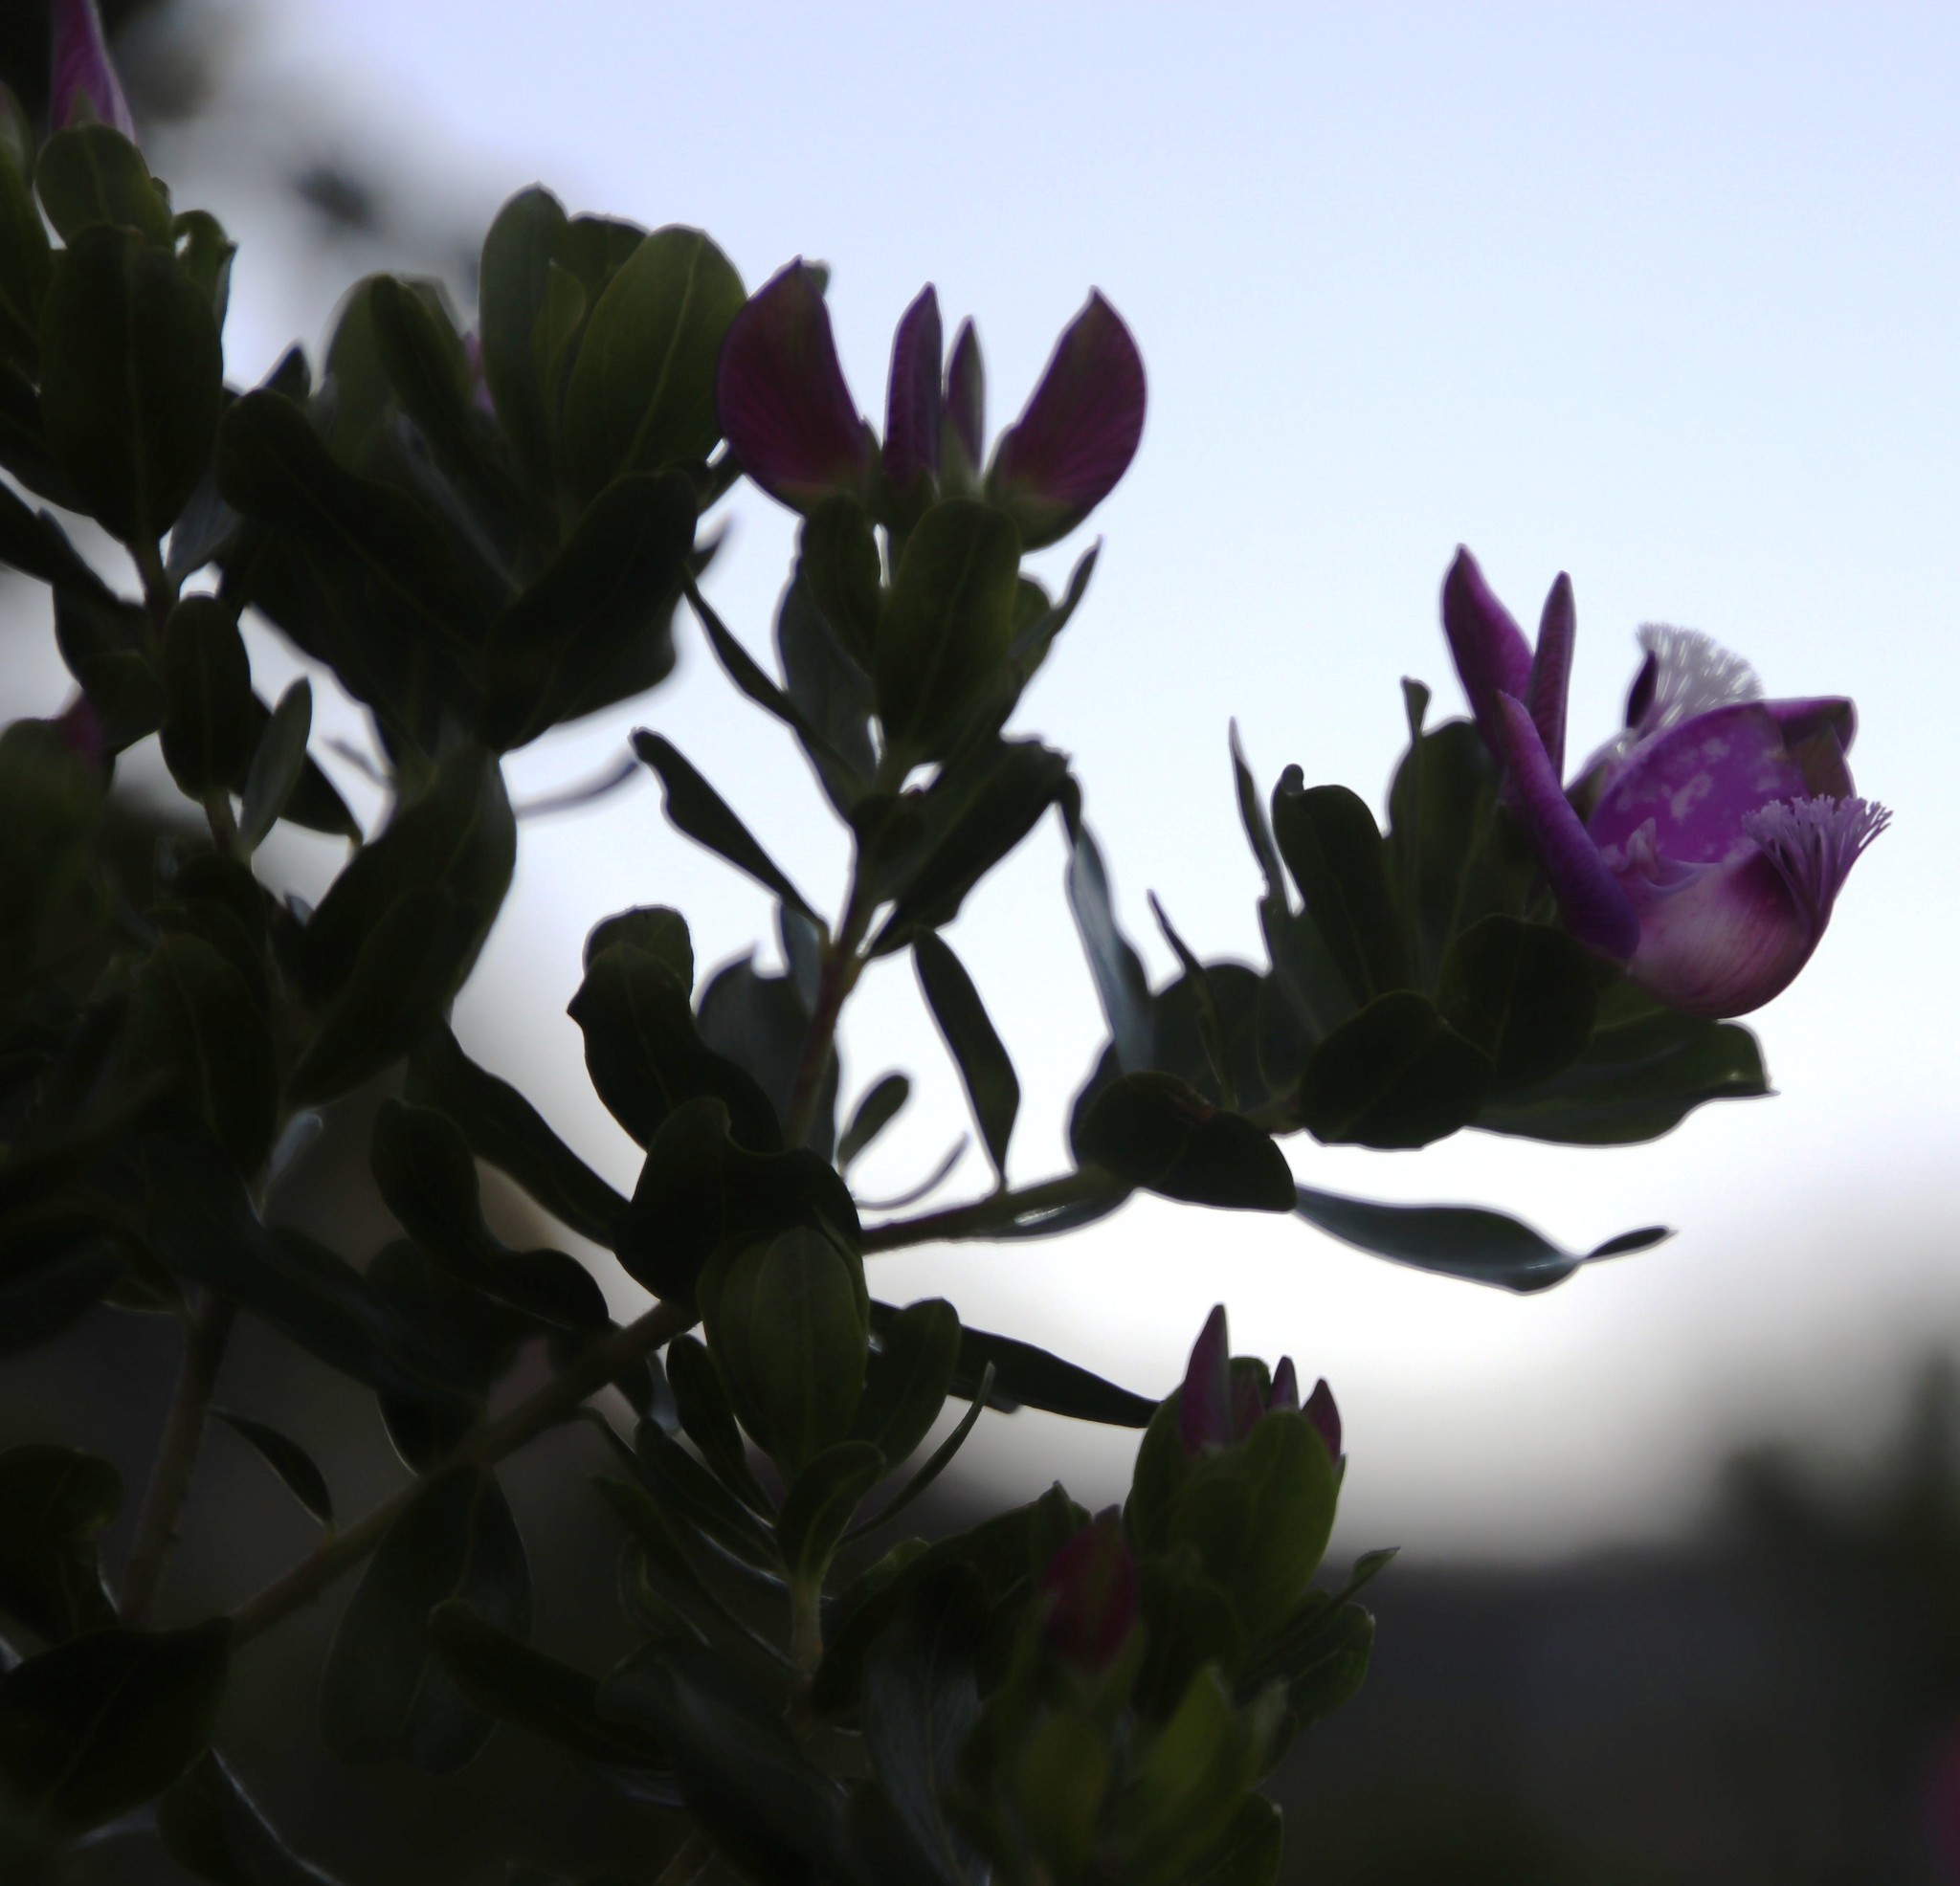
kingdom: Plantae
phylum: Tracheophyta
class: Magnoliopsida
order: Fabales
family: Polygalaceae
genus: Polygala
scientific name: Polygala myrtifolia
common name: Myrtle-leaf milkwort
